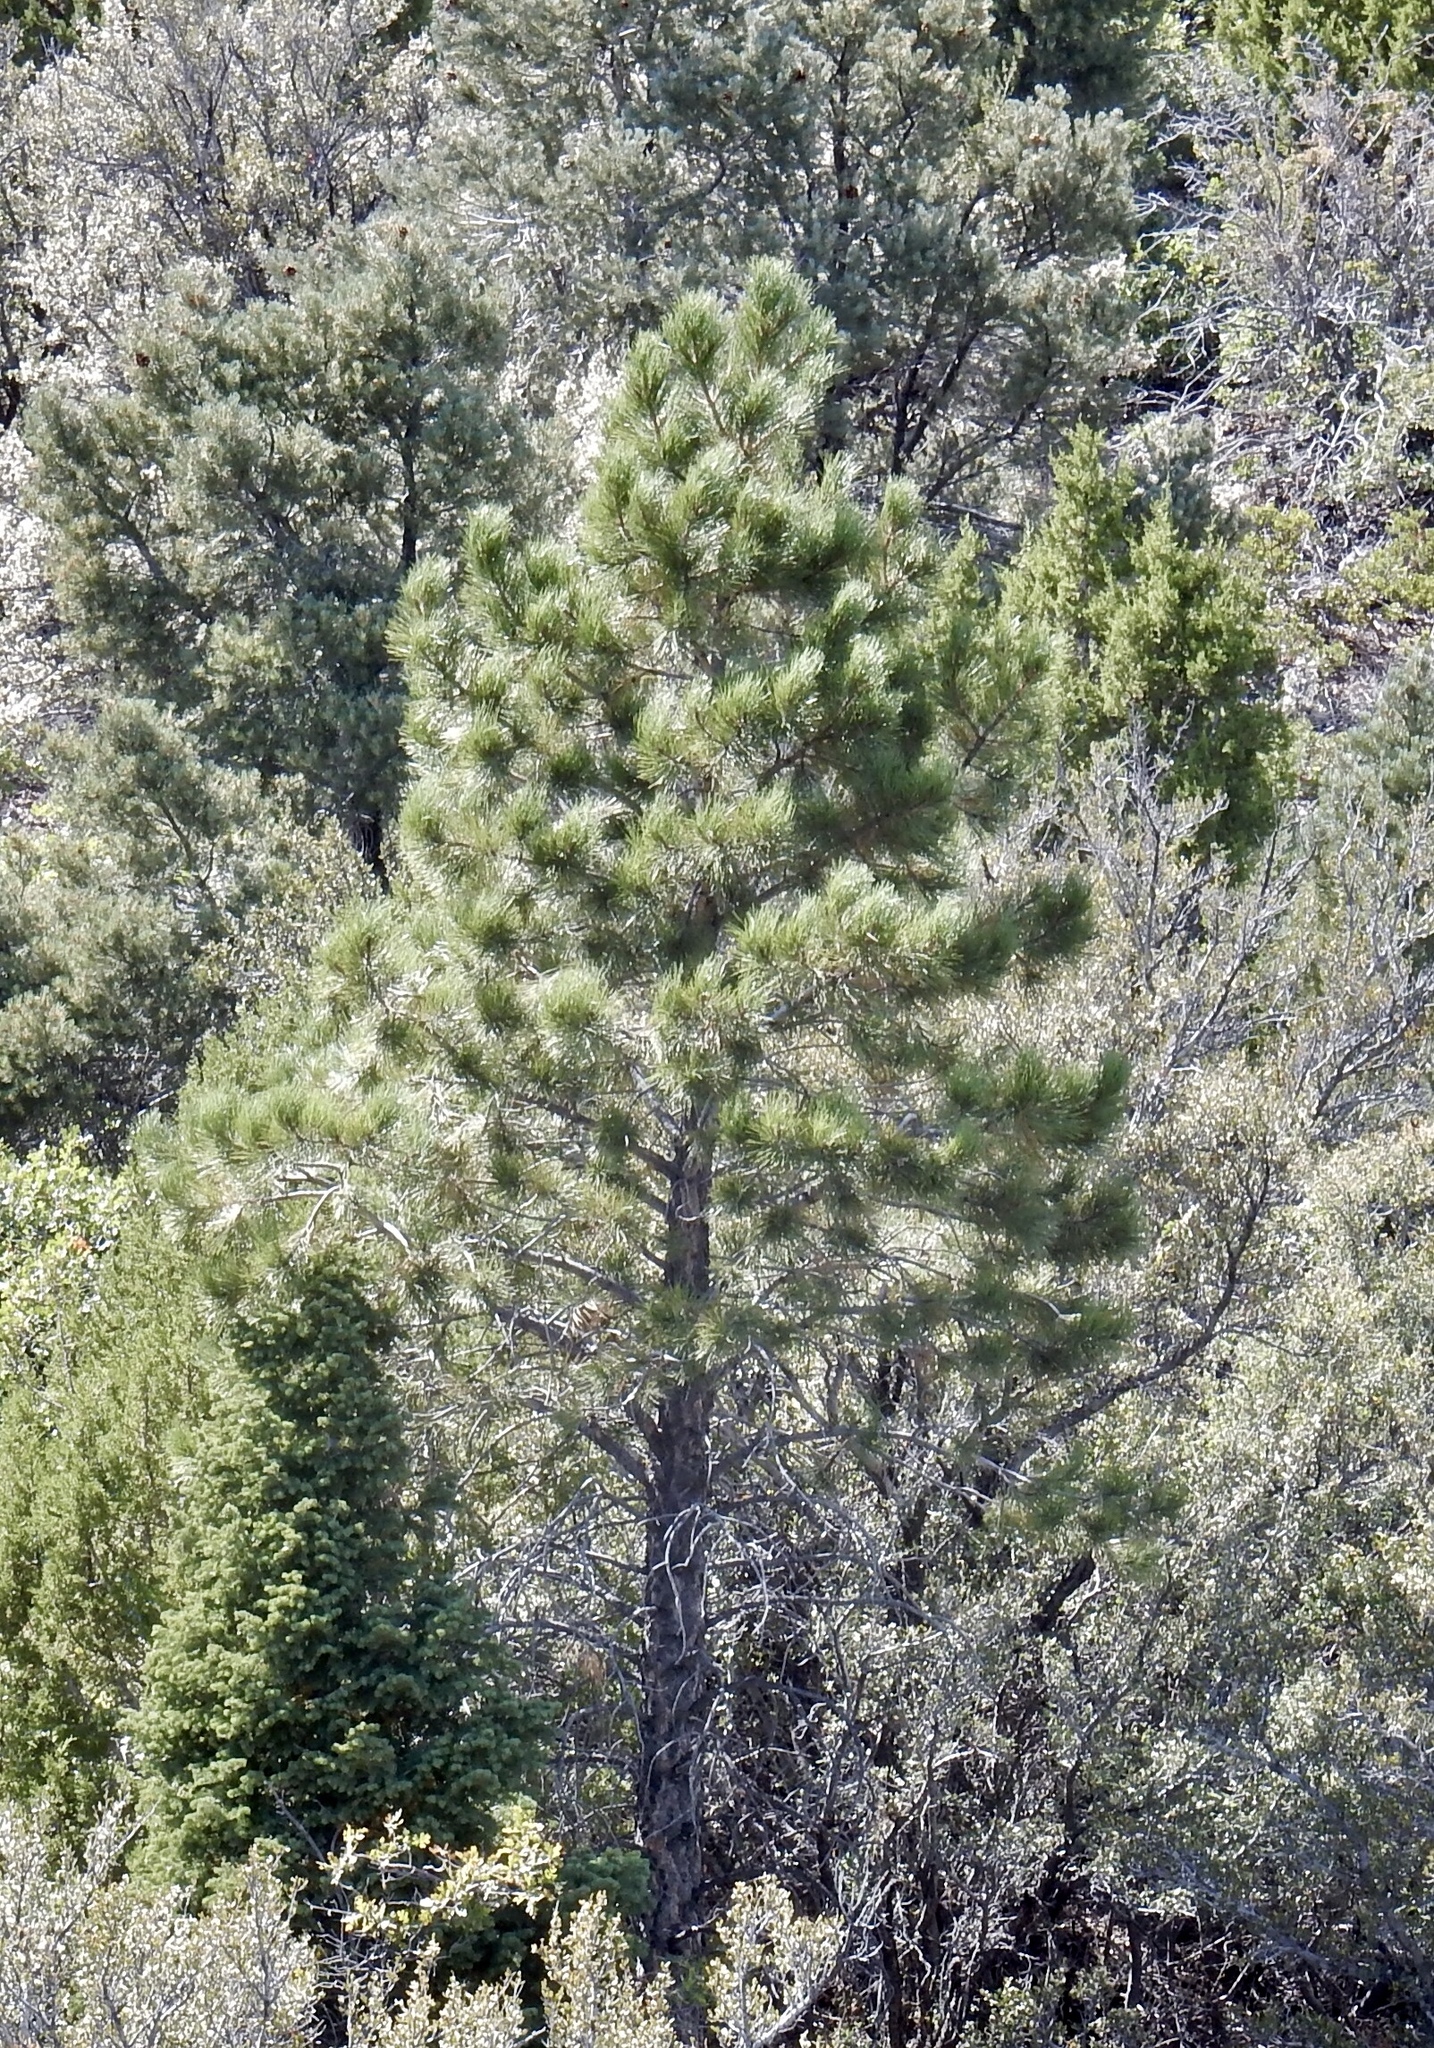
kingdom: Plantae
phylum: Tracheophyta
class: Pinopsida
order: Pinales
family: Pinaceae
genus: Pinus
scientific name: Pinus ponderosa
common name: Western yellow-pine
